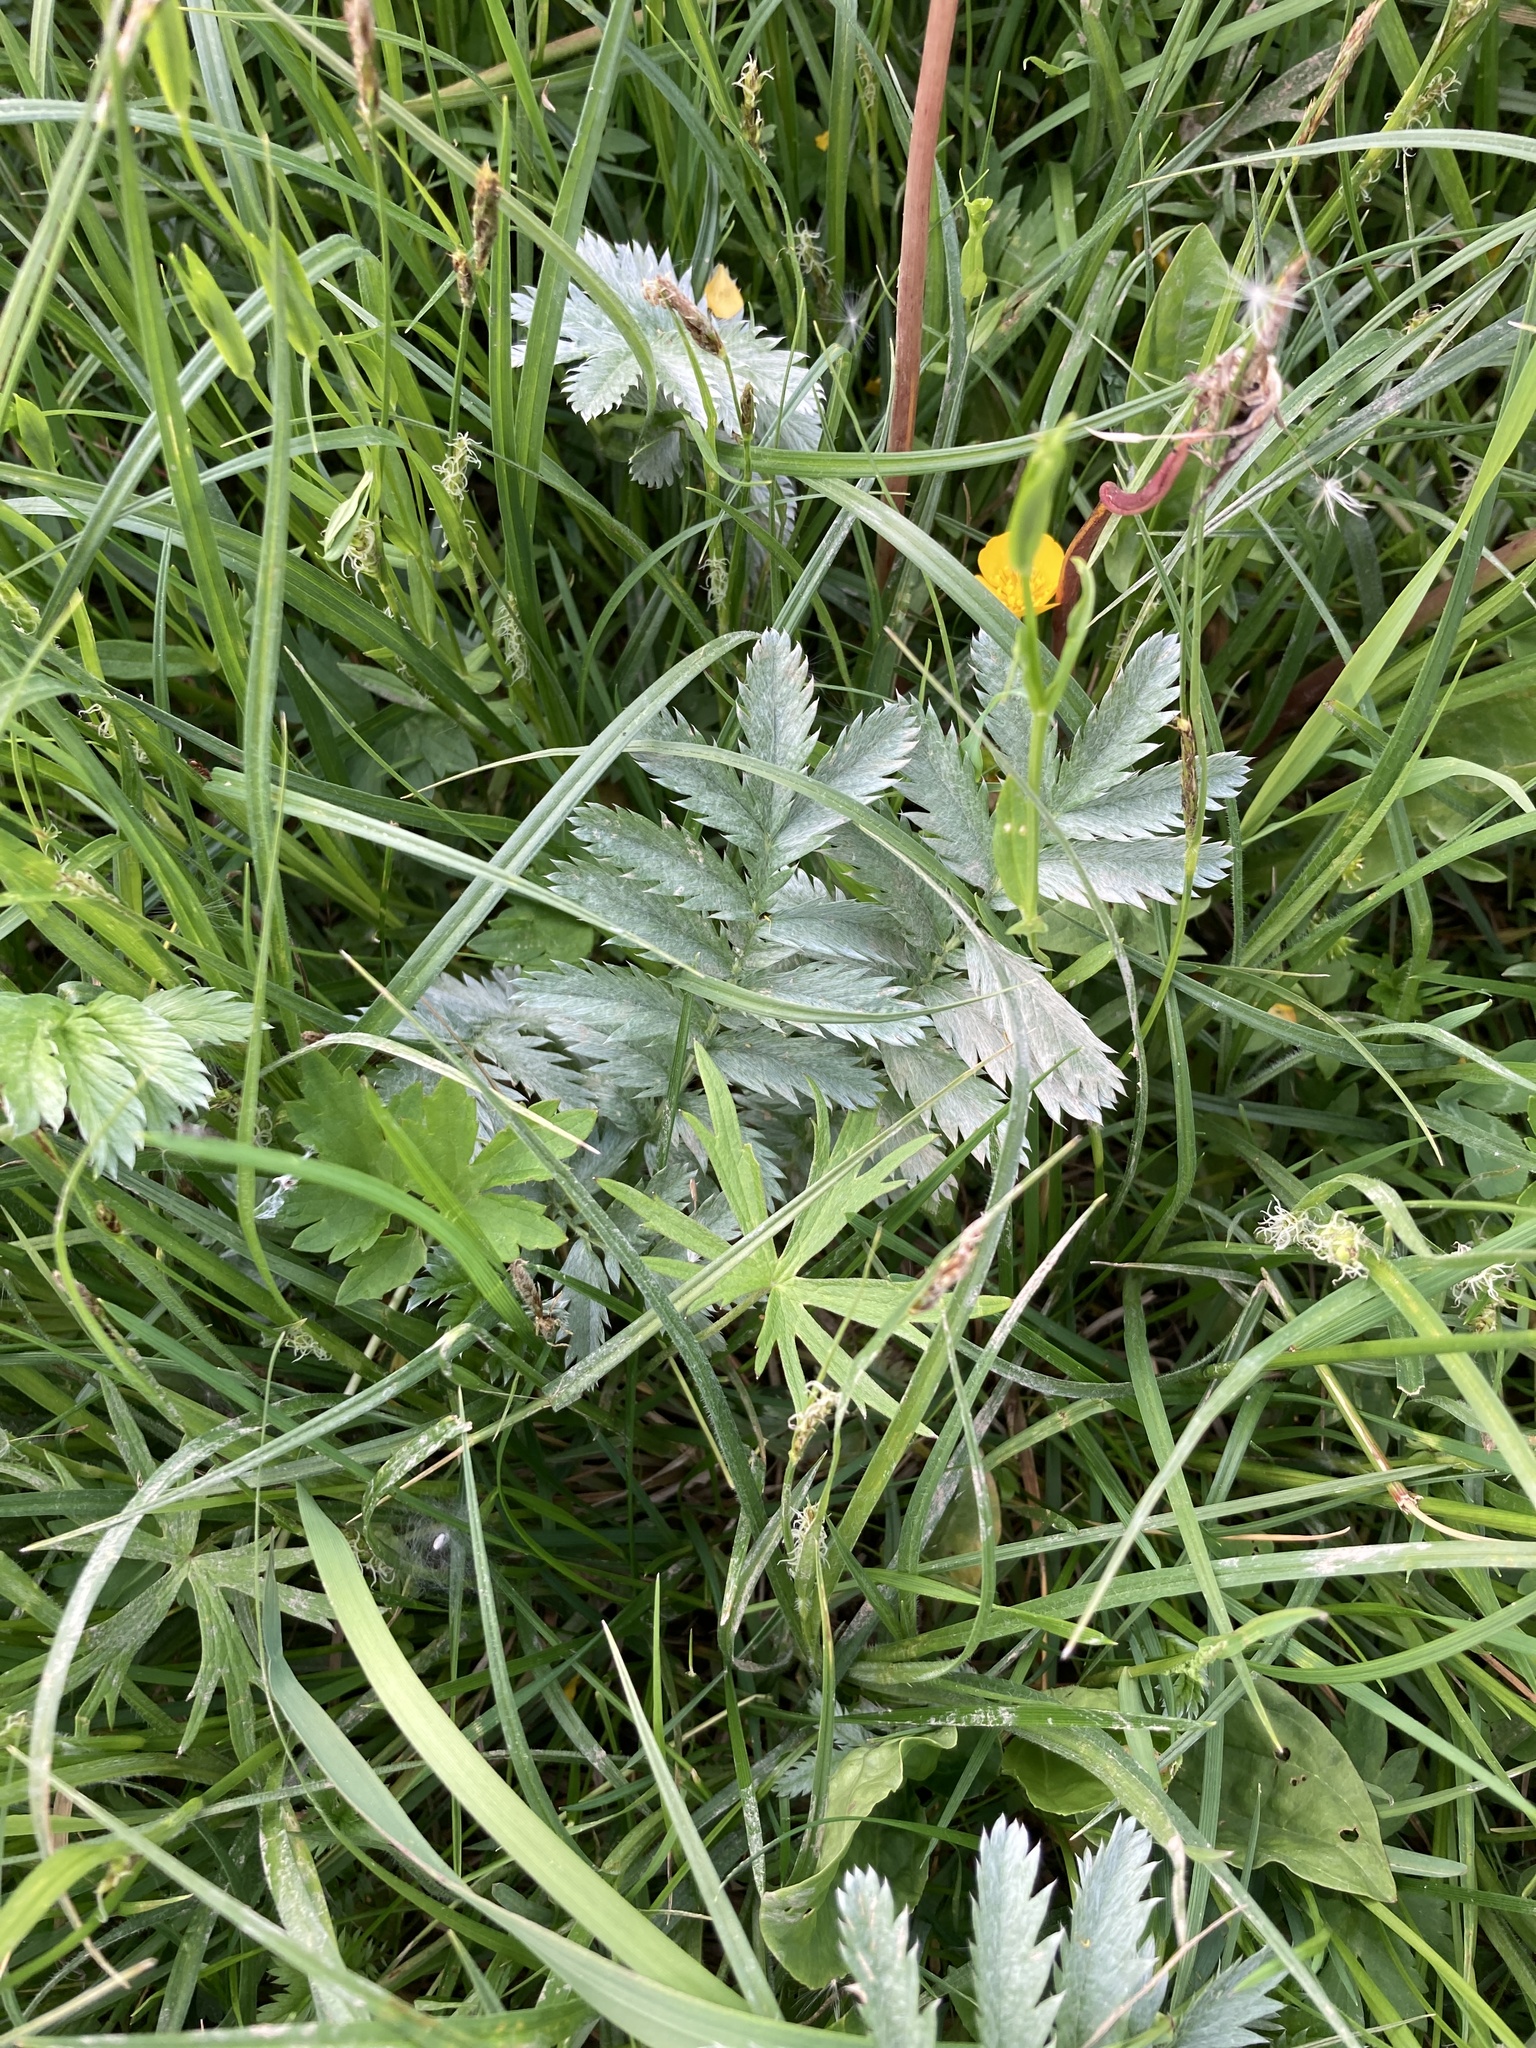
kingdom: Plantae
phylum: Tracheophyta
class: Magnoliopsida
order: Rosales
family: Rosaceae
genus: Argentina
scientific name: Argentina anserina
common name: Common silverweed
